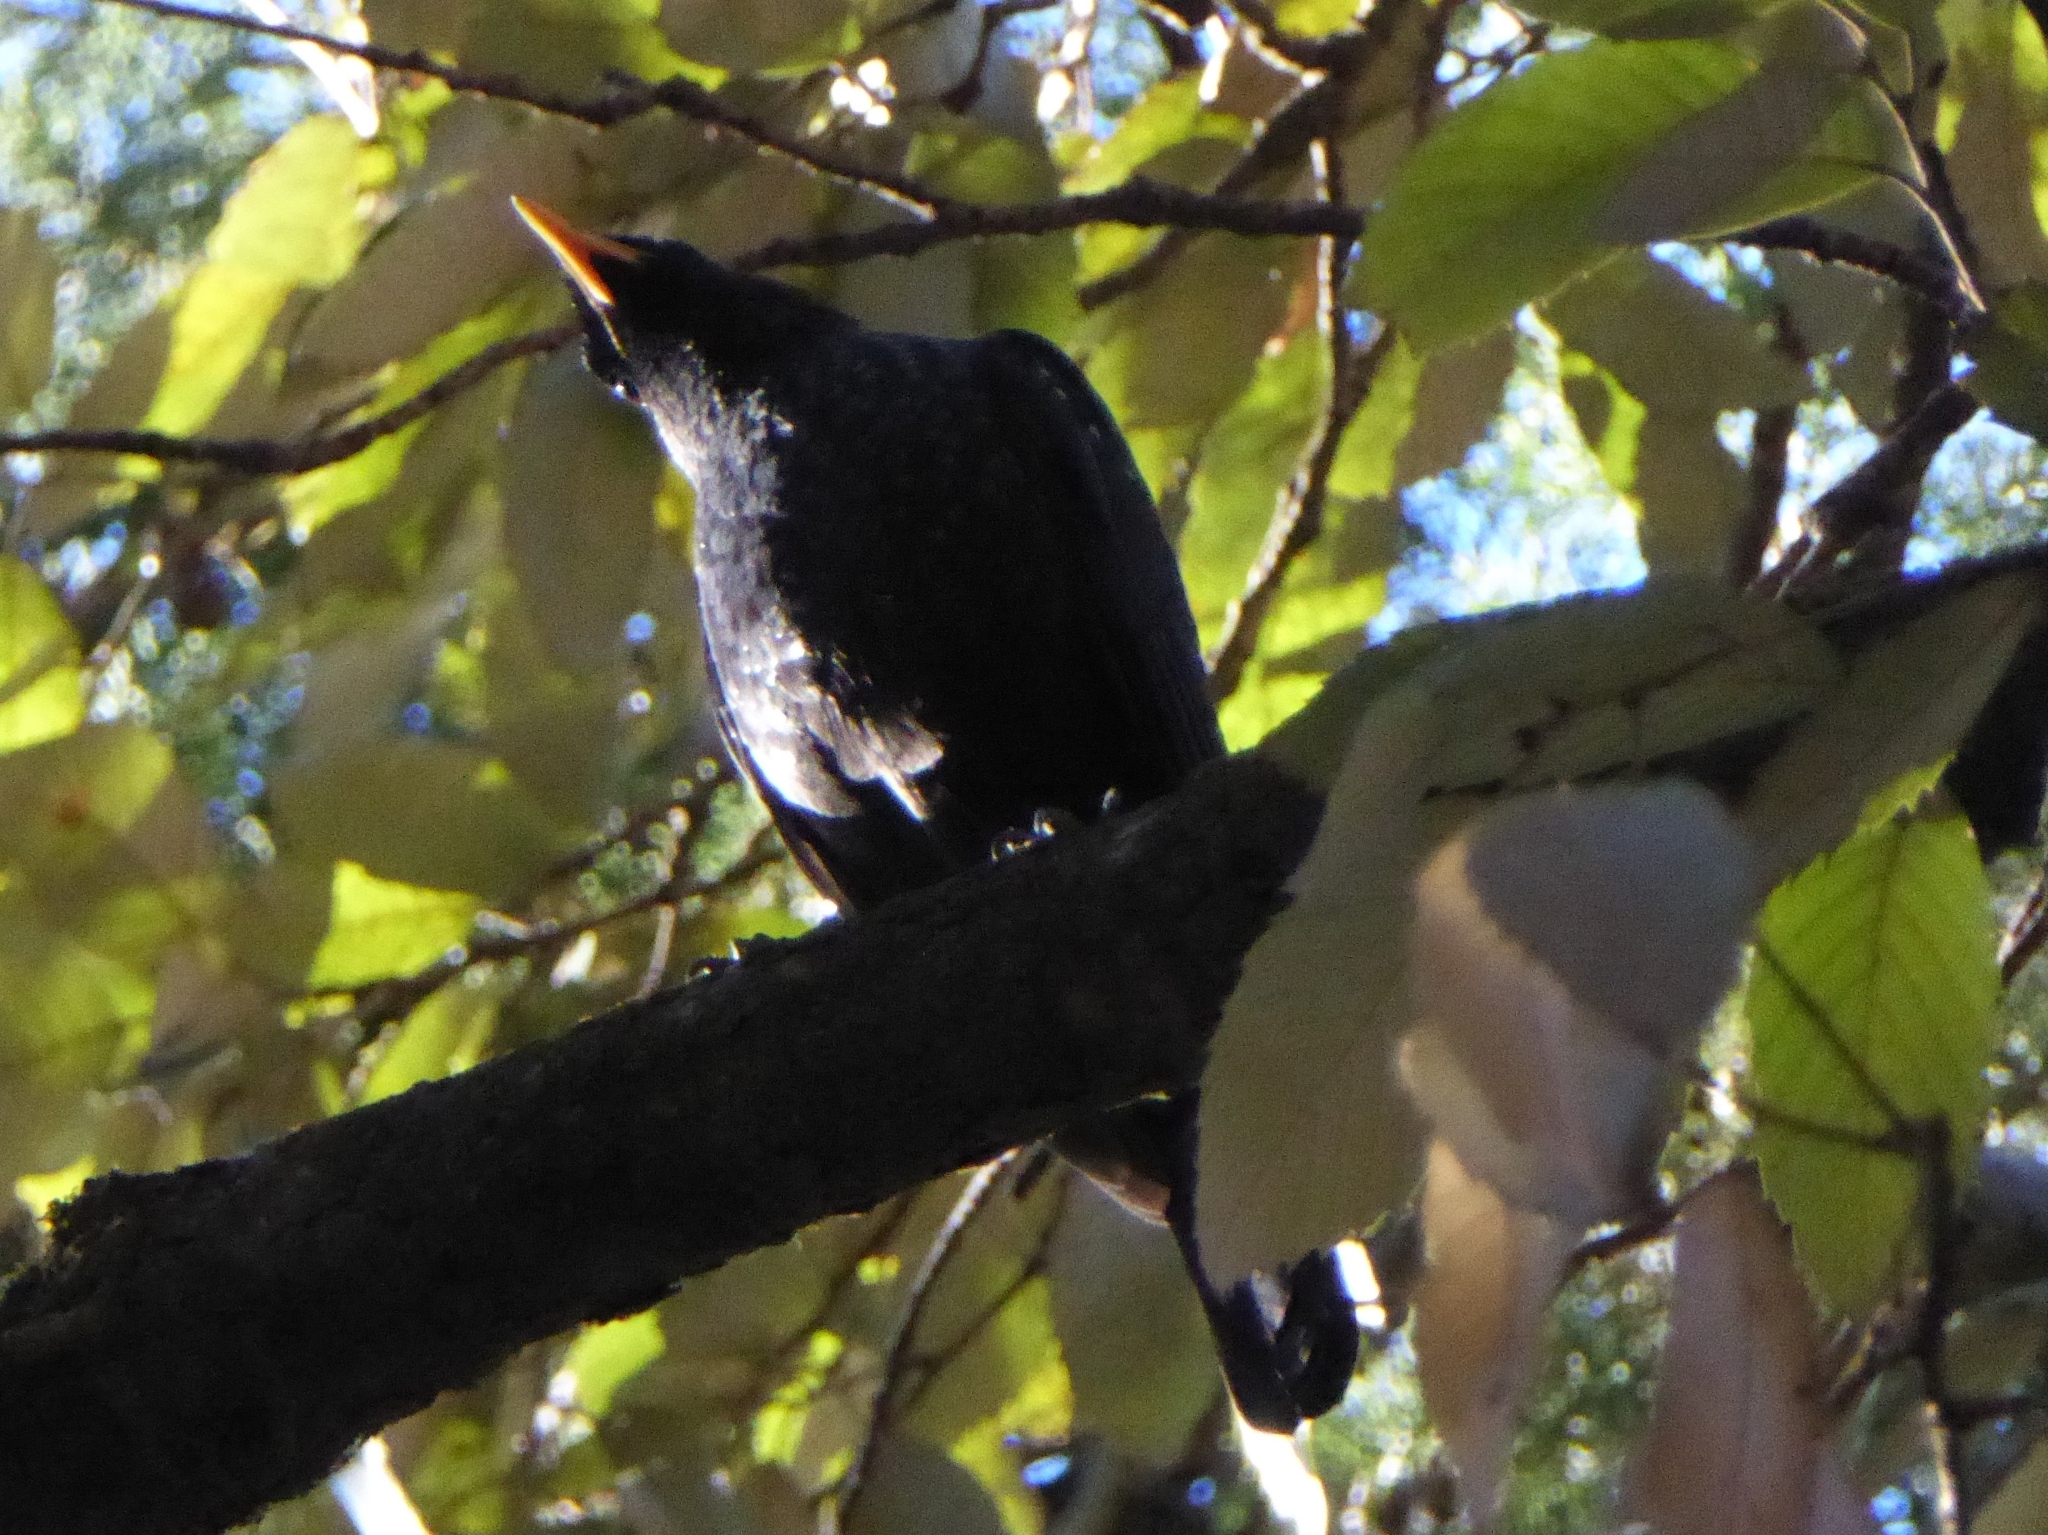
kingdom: Animalia
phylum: Chordata
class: Aves
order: Passeriformes
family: Muscicapidae
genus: Myophonus
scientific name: Myophonus caeruleus
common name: Blue whistling-thrush
